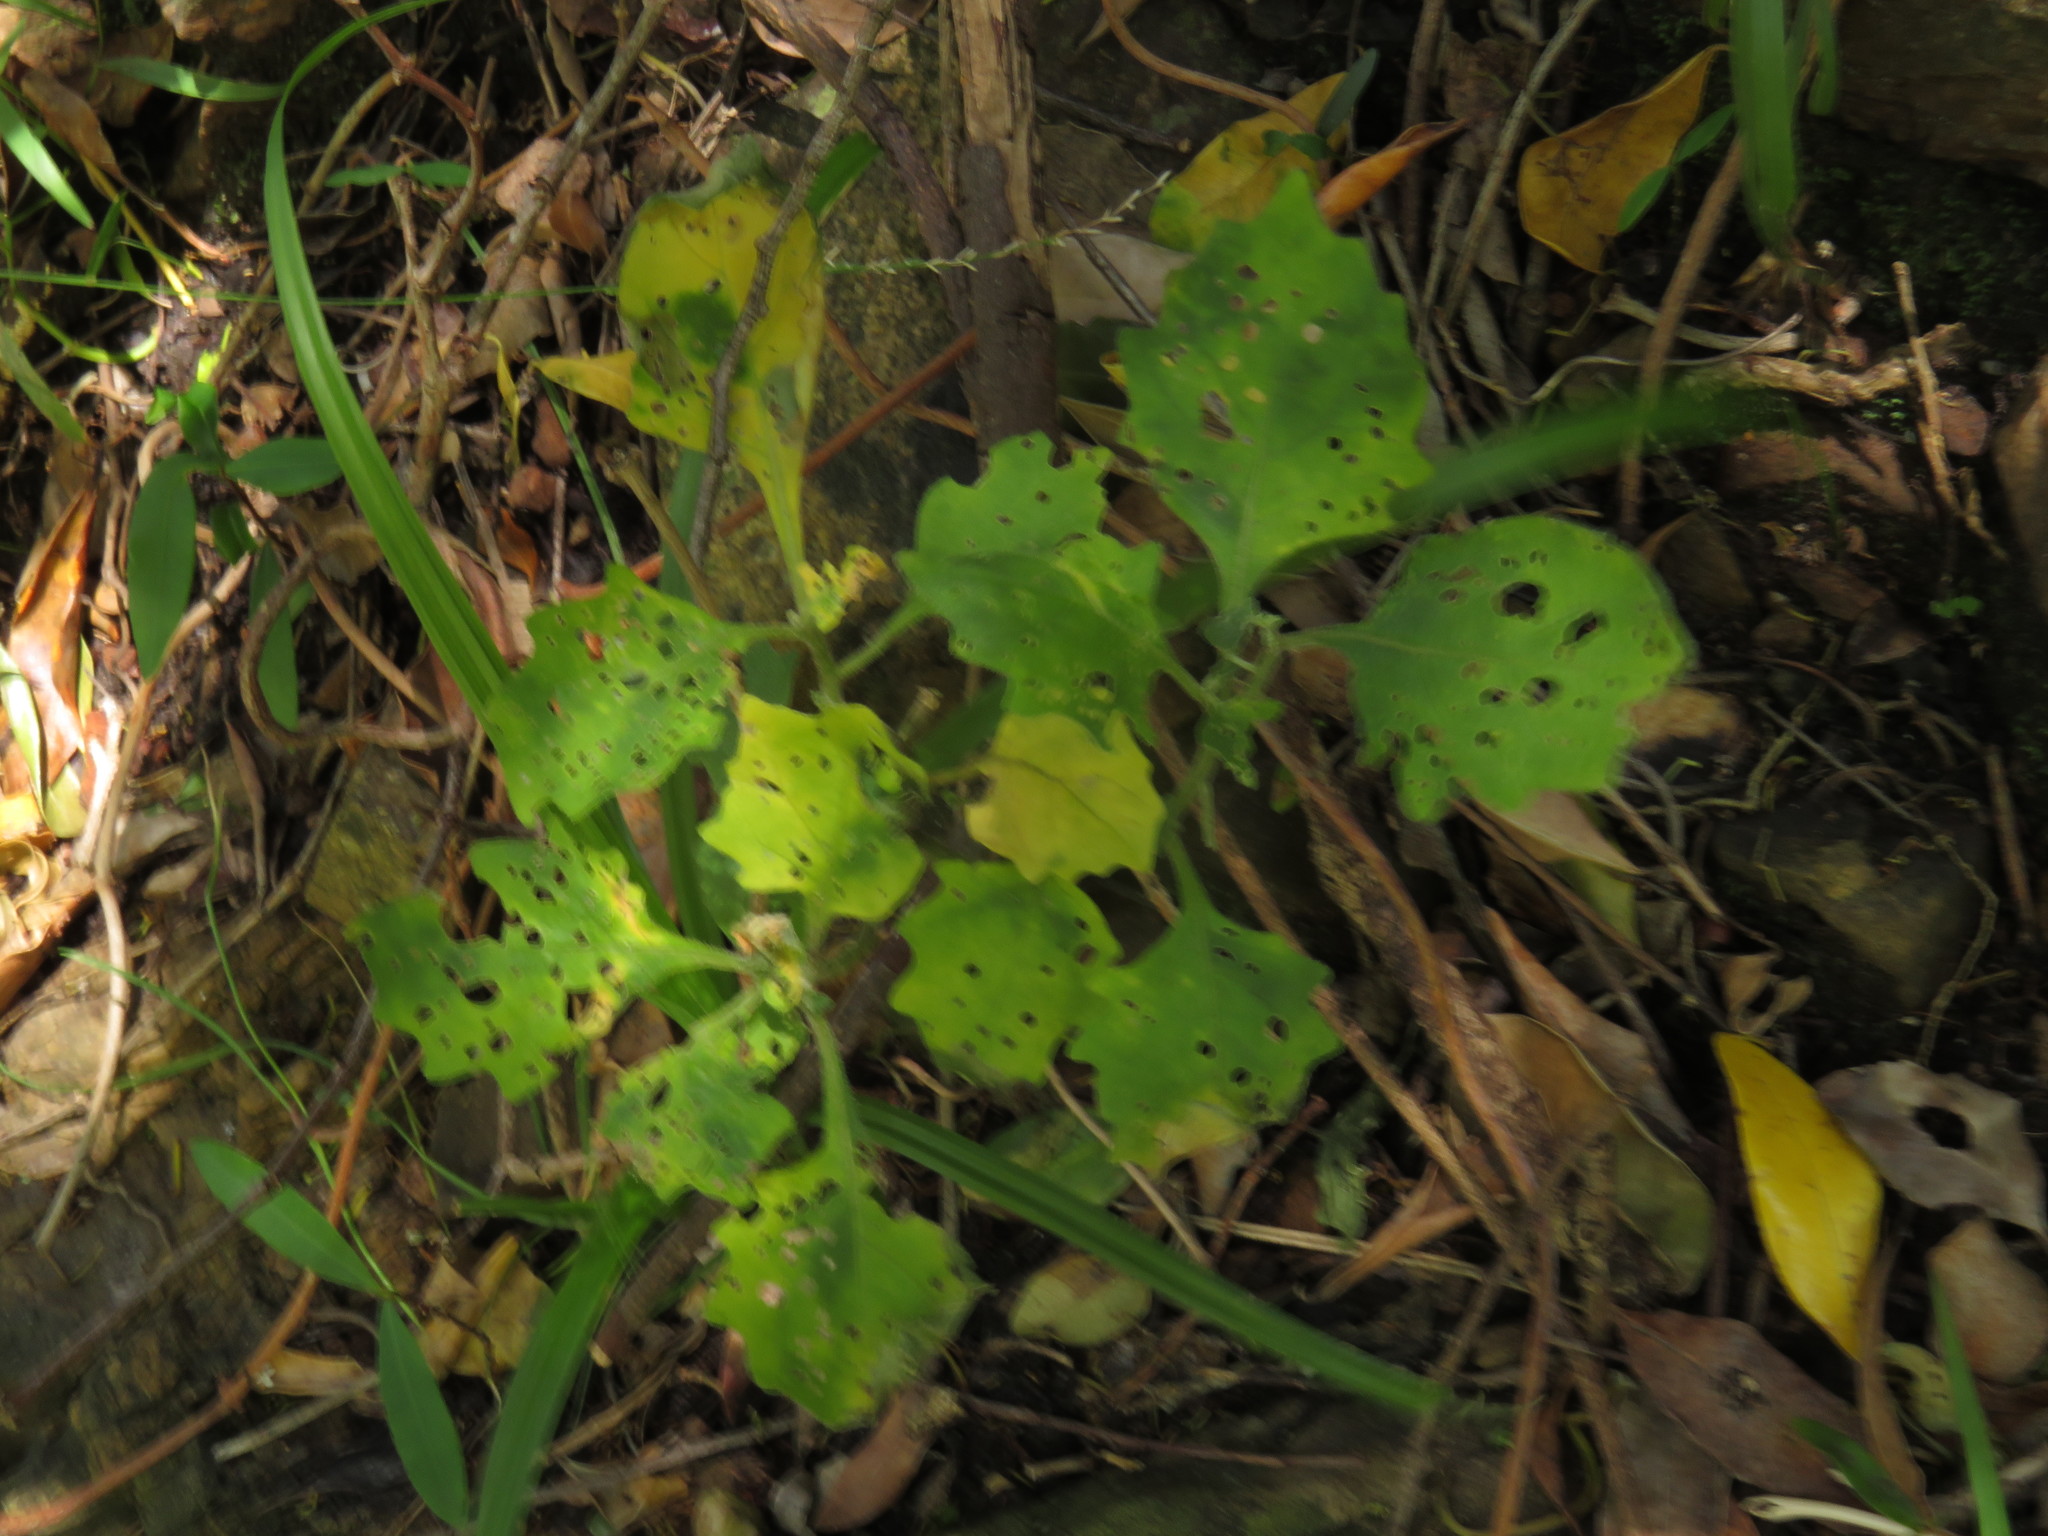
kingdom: Plantae
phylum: Tracheophyta
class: Magnoliopsida
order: Solanales
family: Solanaceae
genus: Solanum
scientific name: Solanum retroflexum
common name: Wonderberry
